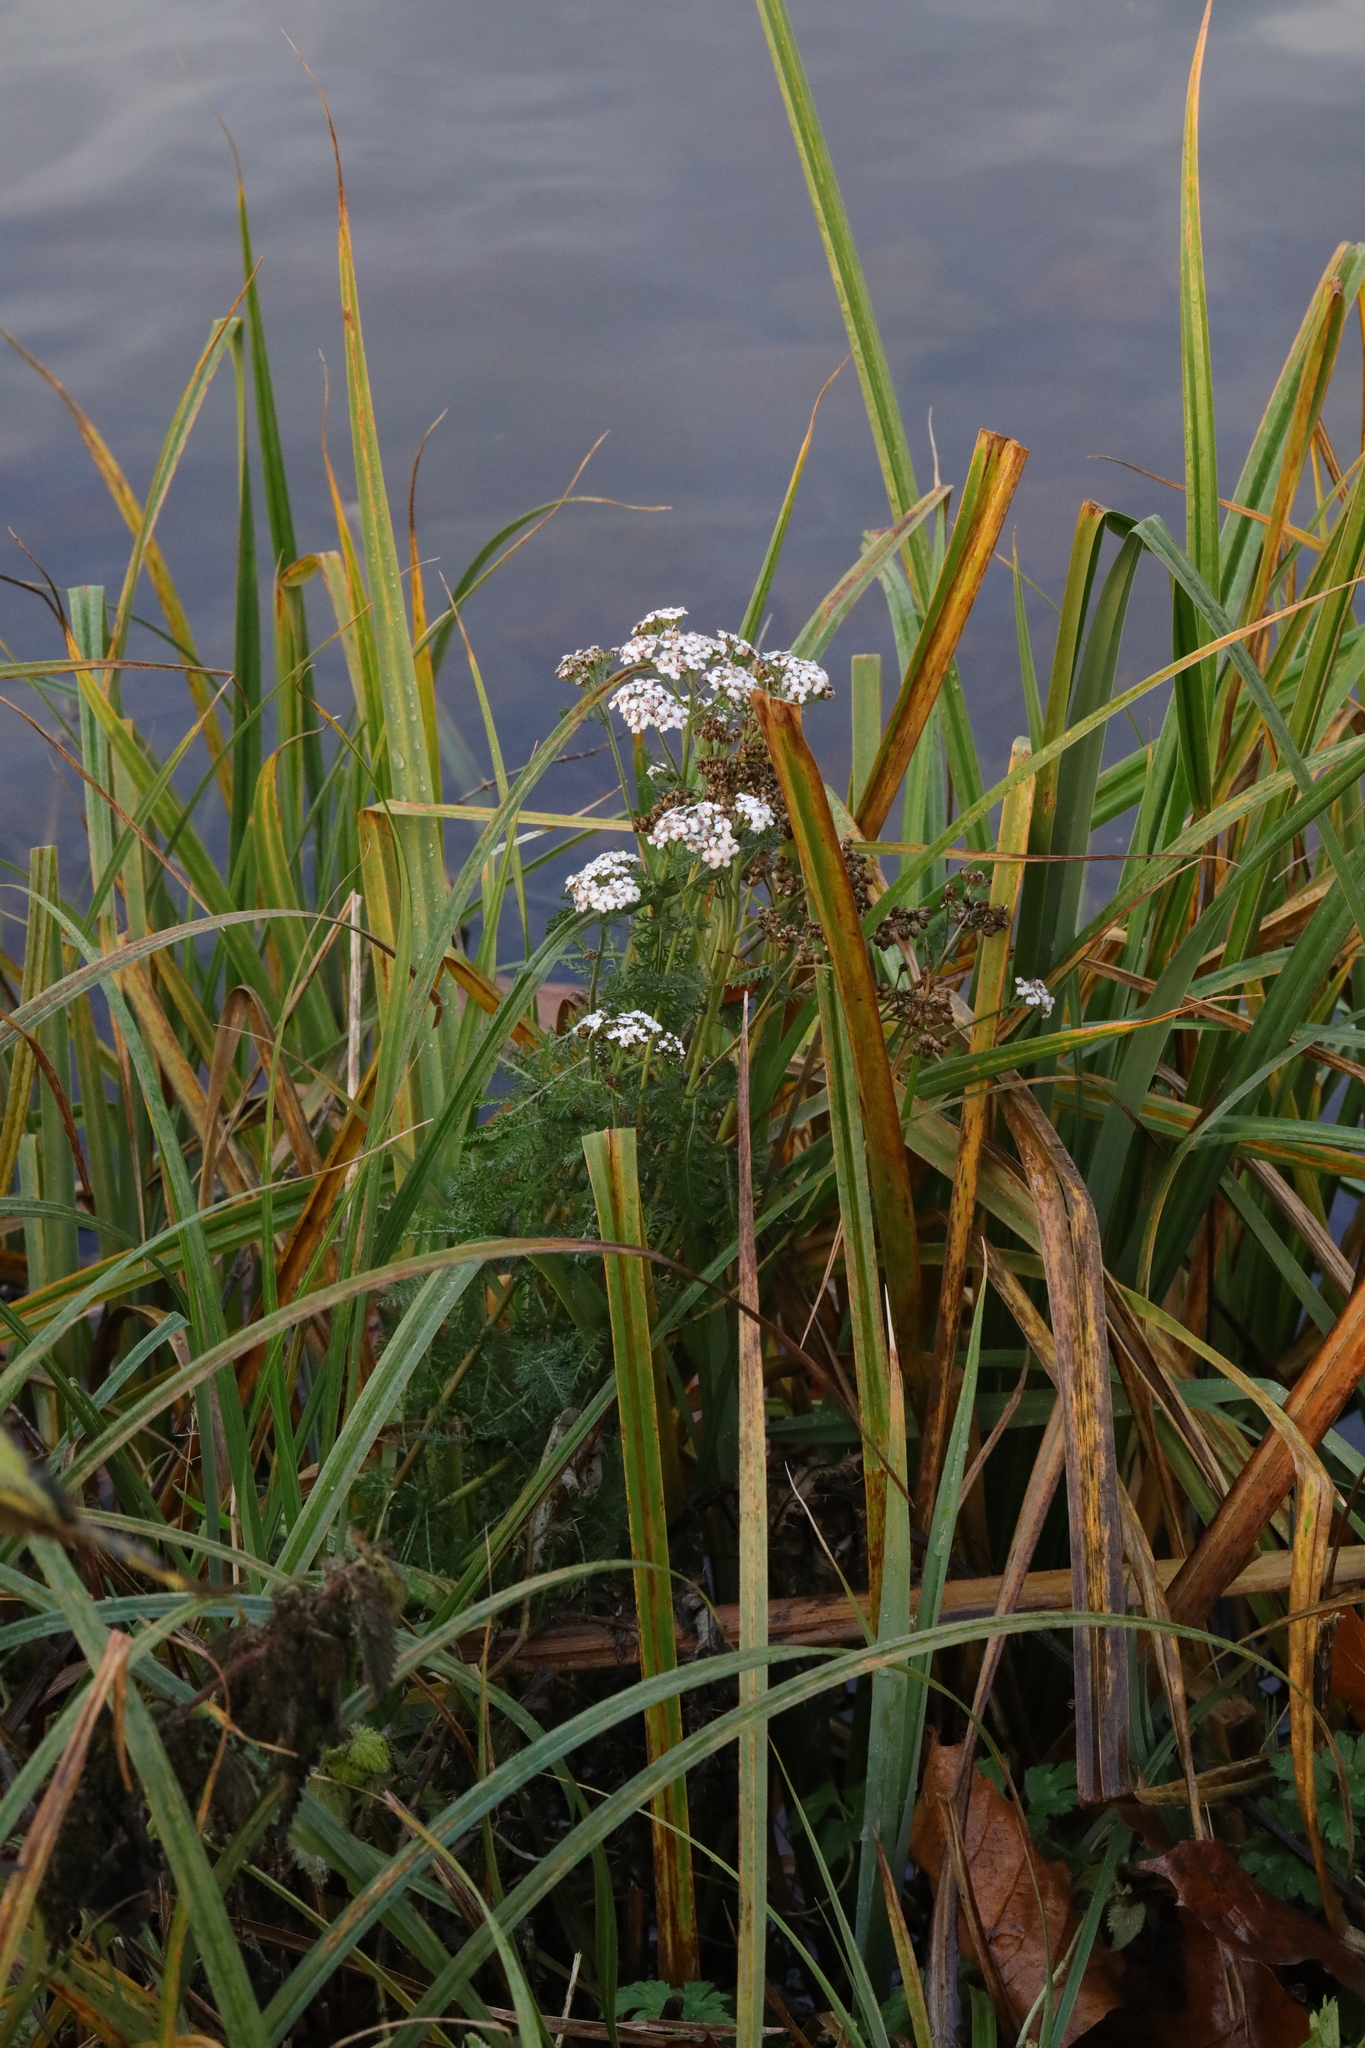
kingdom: Plantae
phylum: Tracheophyta
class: Magnoliopsida
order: Asterales
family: Asteraceae
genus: Achillea
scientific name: Achillea millefolium
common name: Yarrow
